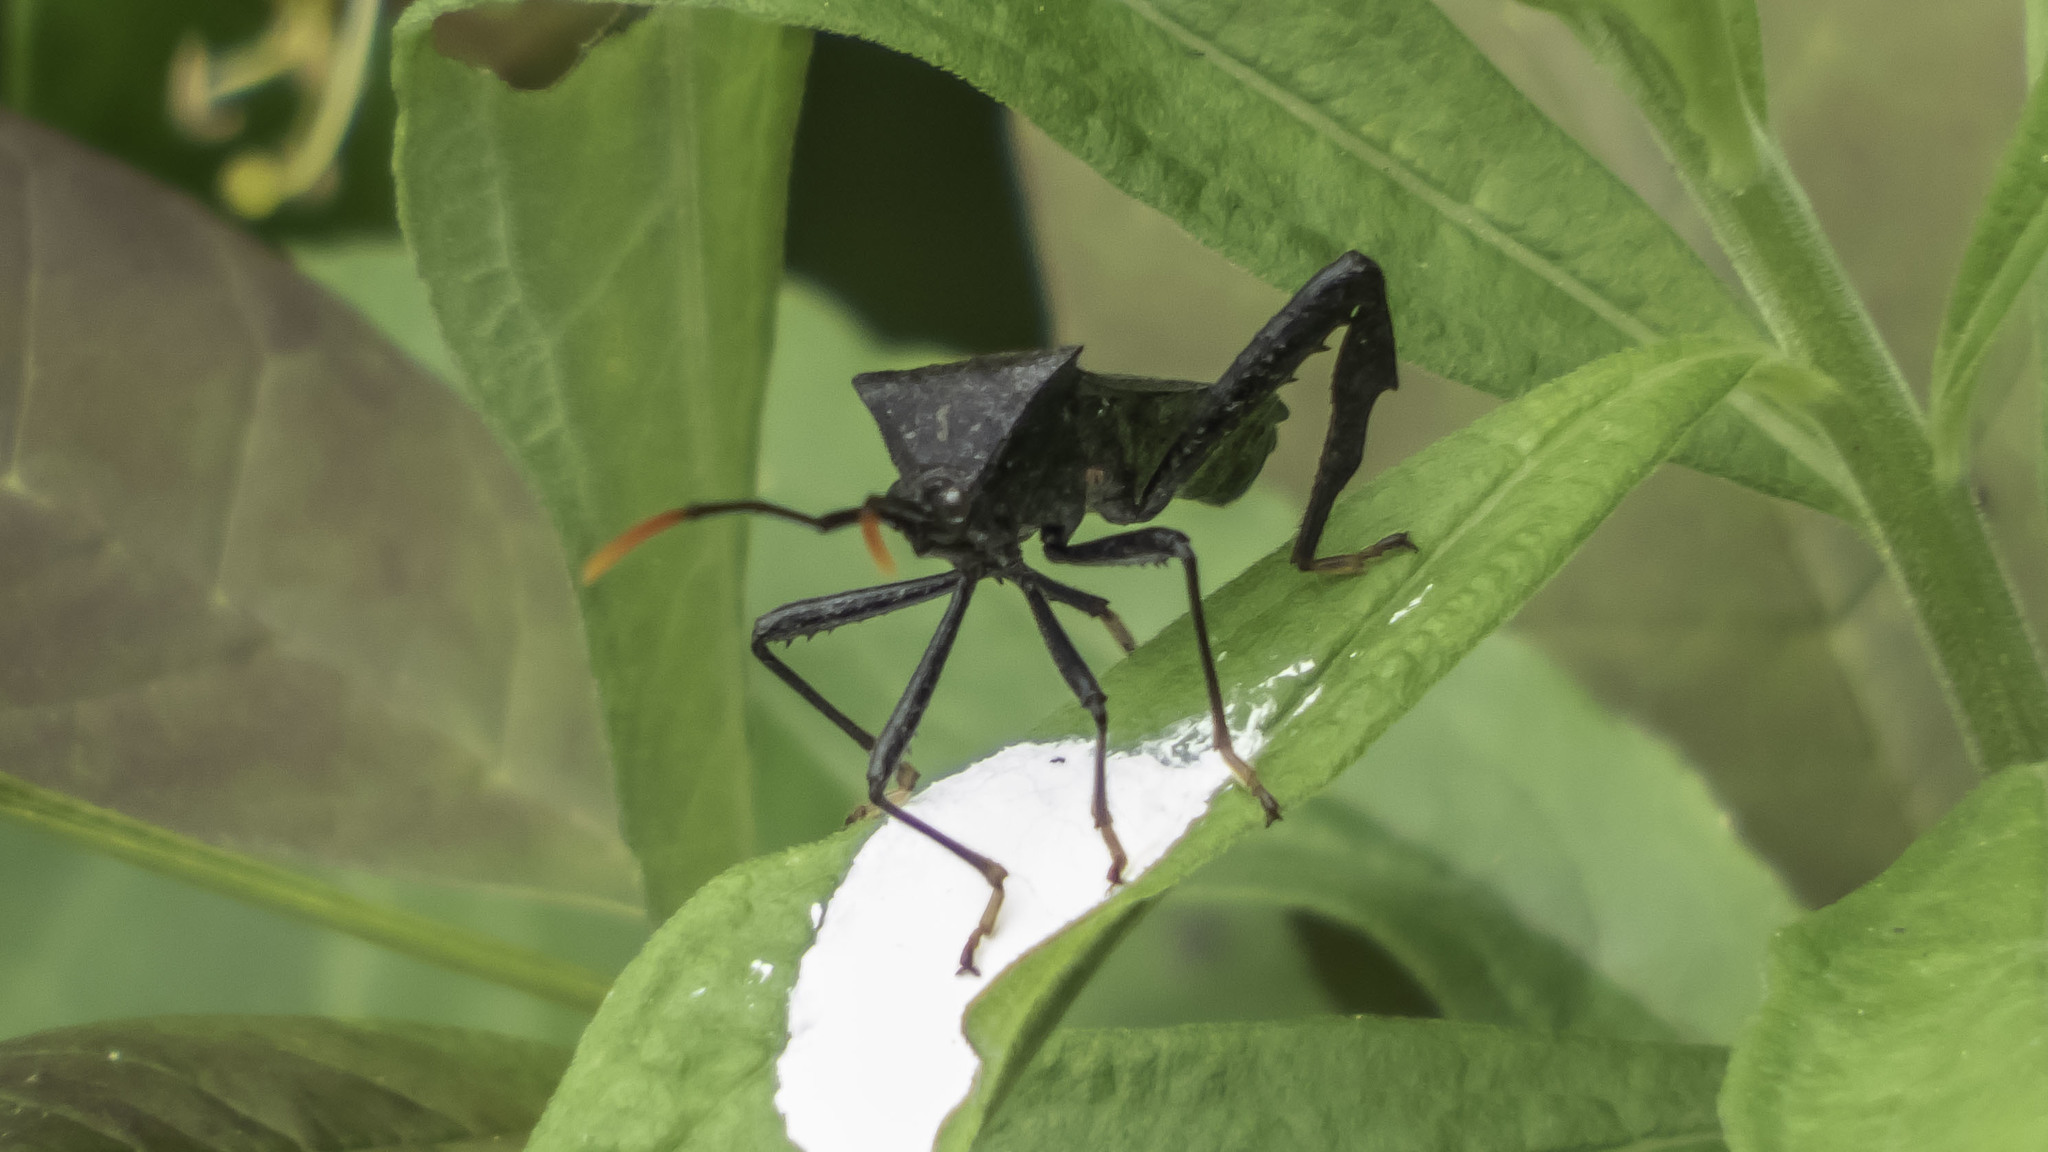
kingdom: Animalia
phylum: Arthropoda
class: Insecta
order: Hemiptera
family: Coreidae
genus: Acanthocephala
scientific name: Acanthocephala terminalis
